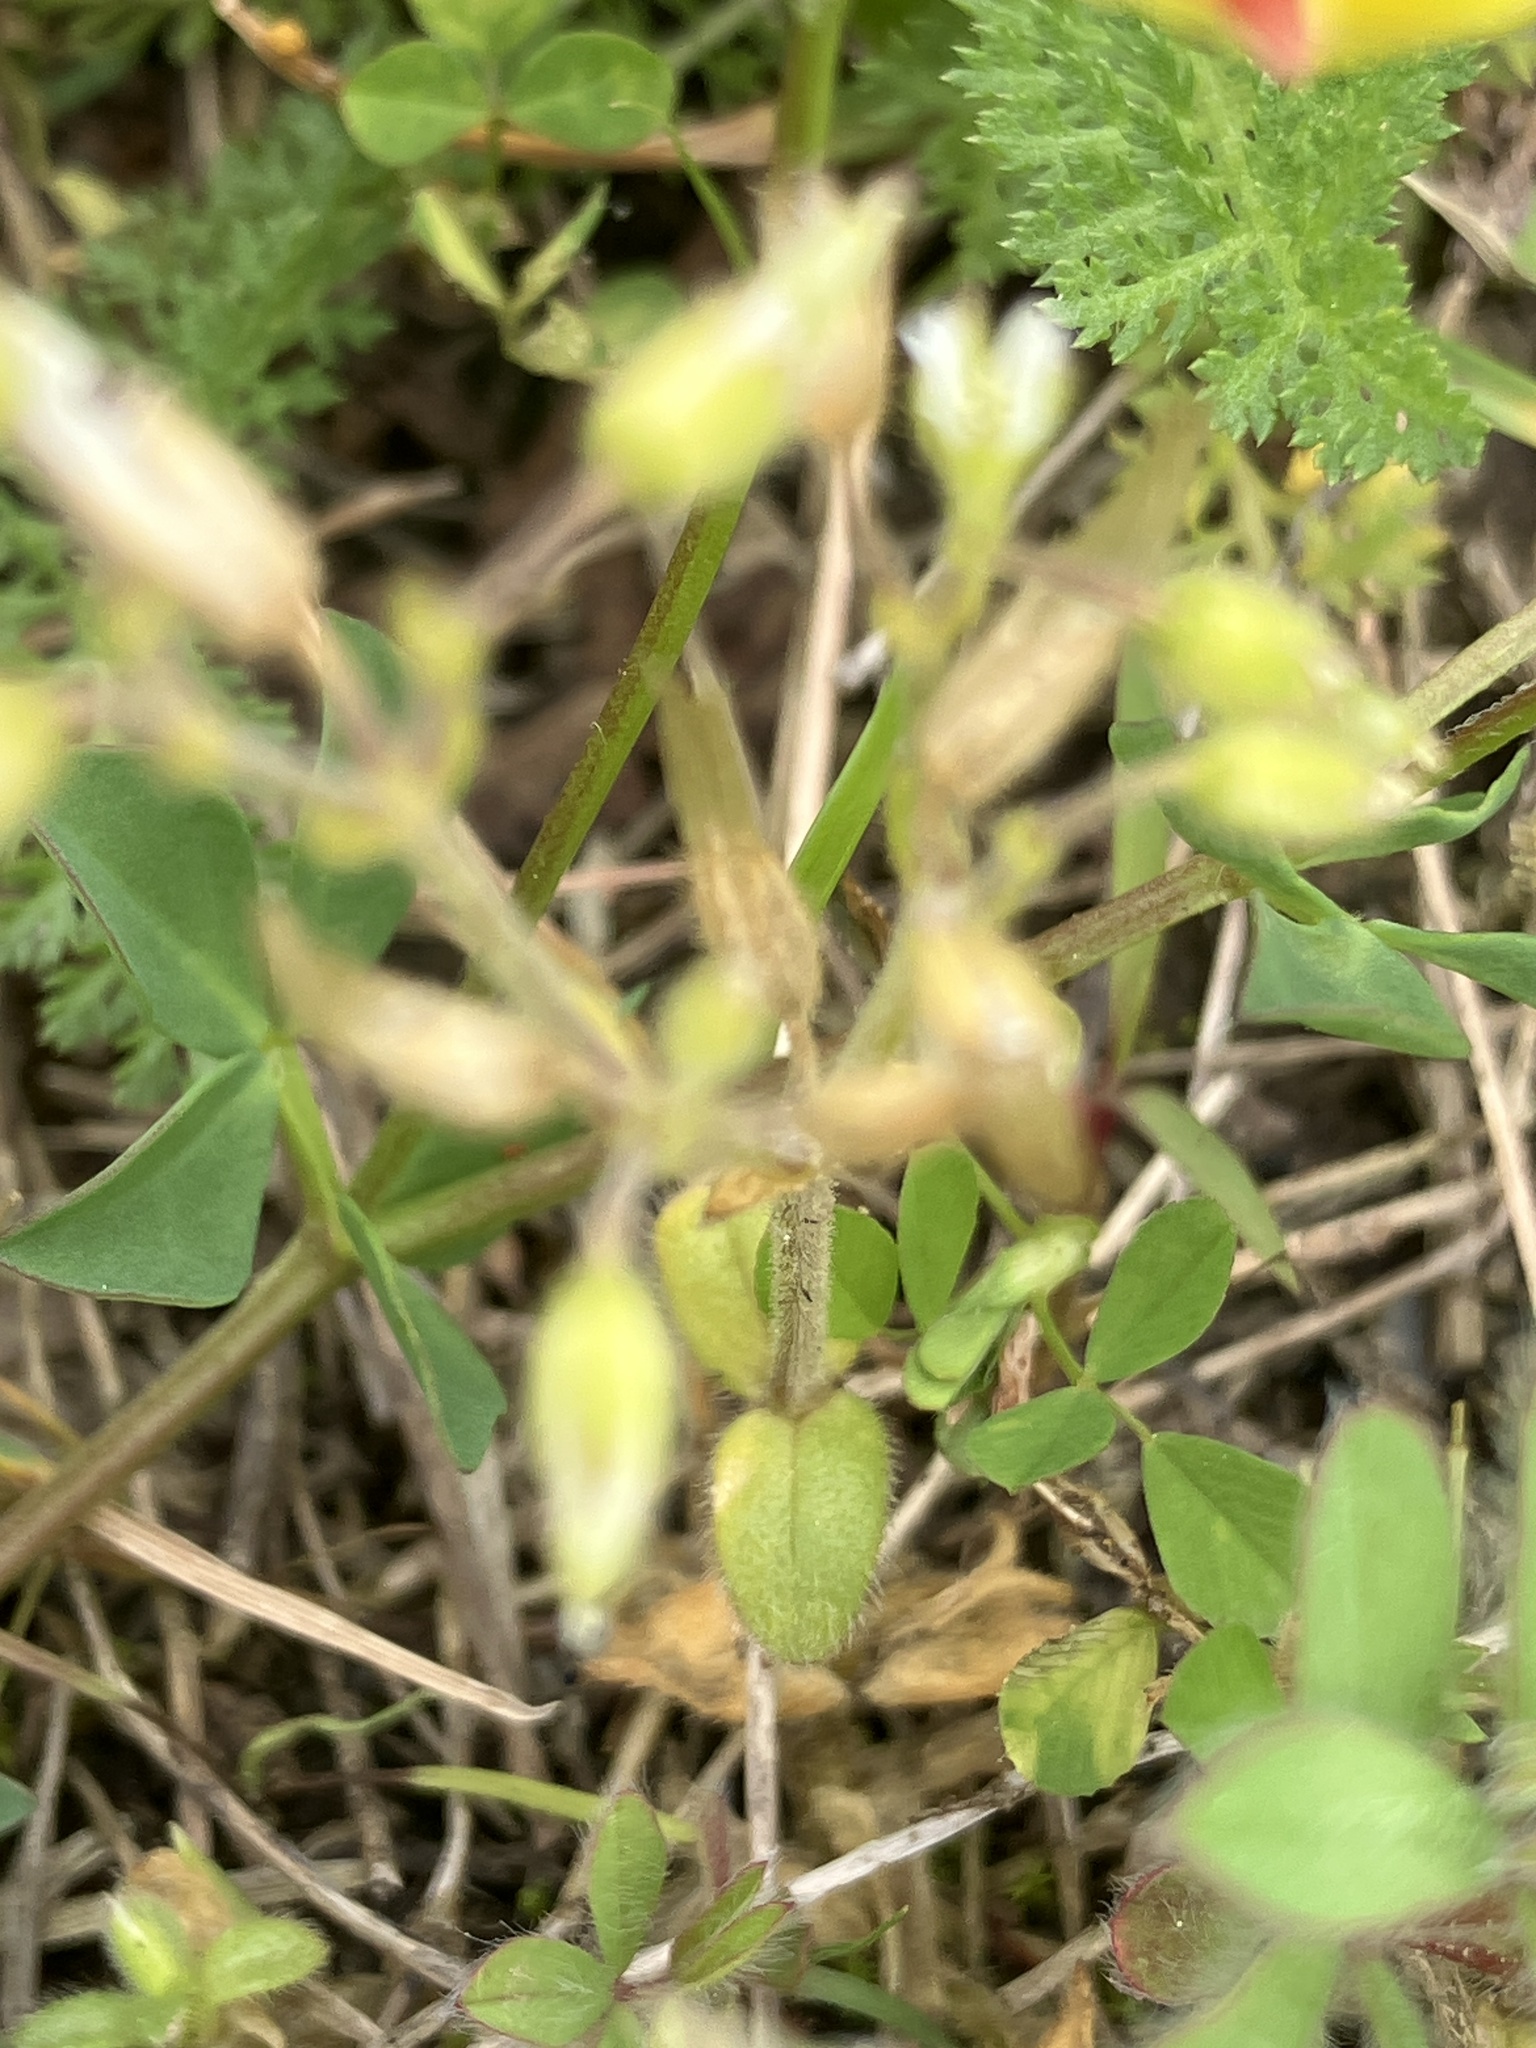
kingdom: Plantae
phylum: Tracheophyta
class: Magnoliopsida
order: Caryophyllales
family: Caryophyllaceae
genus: Cerastium
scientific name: Cerastium glutinosum
